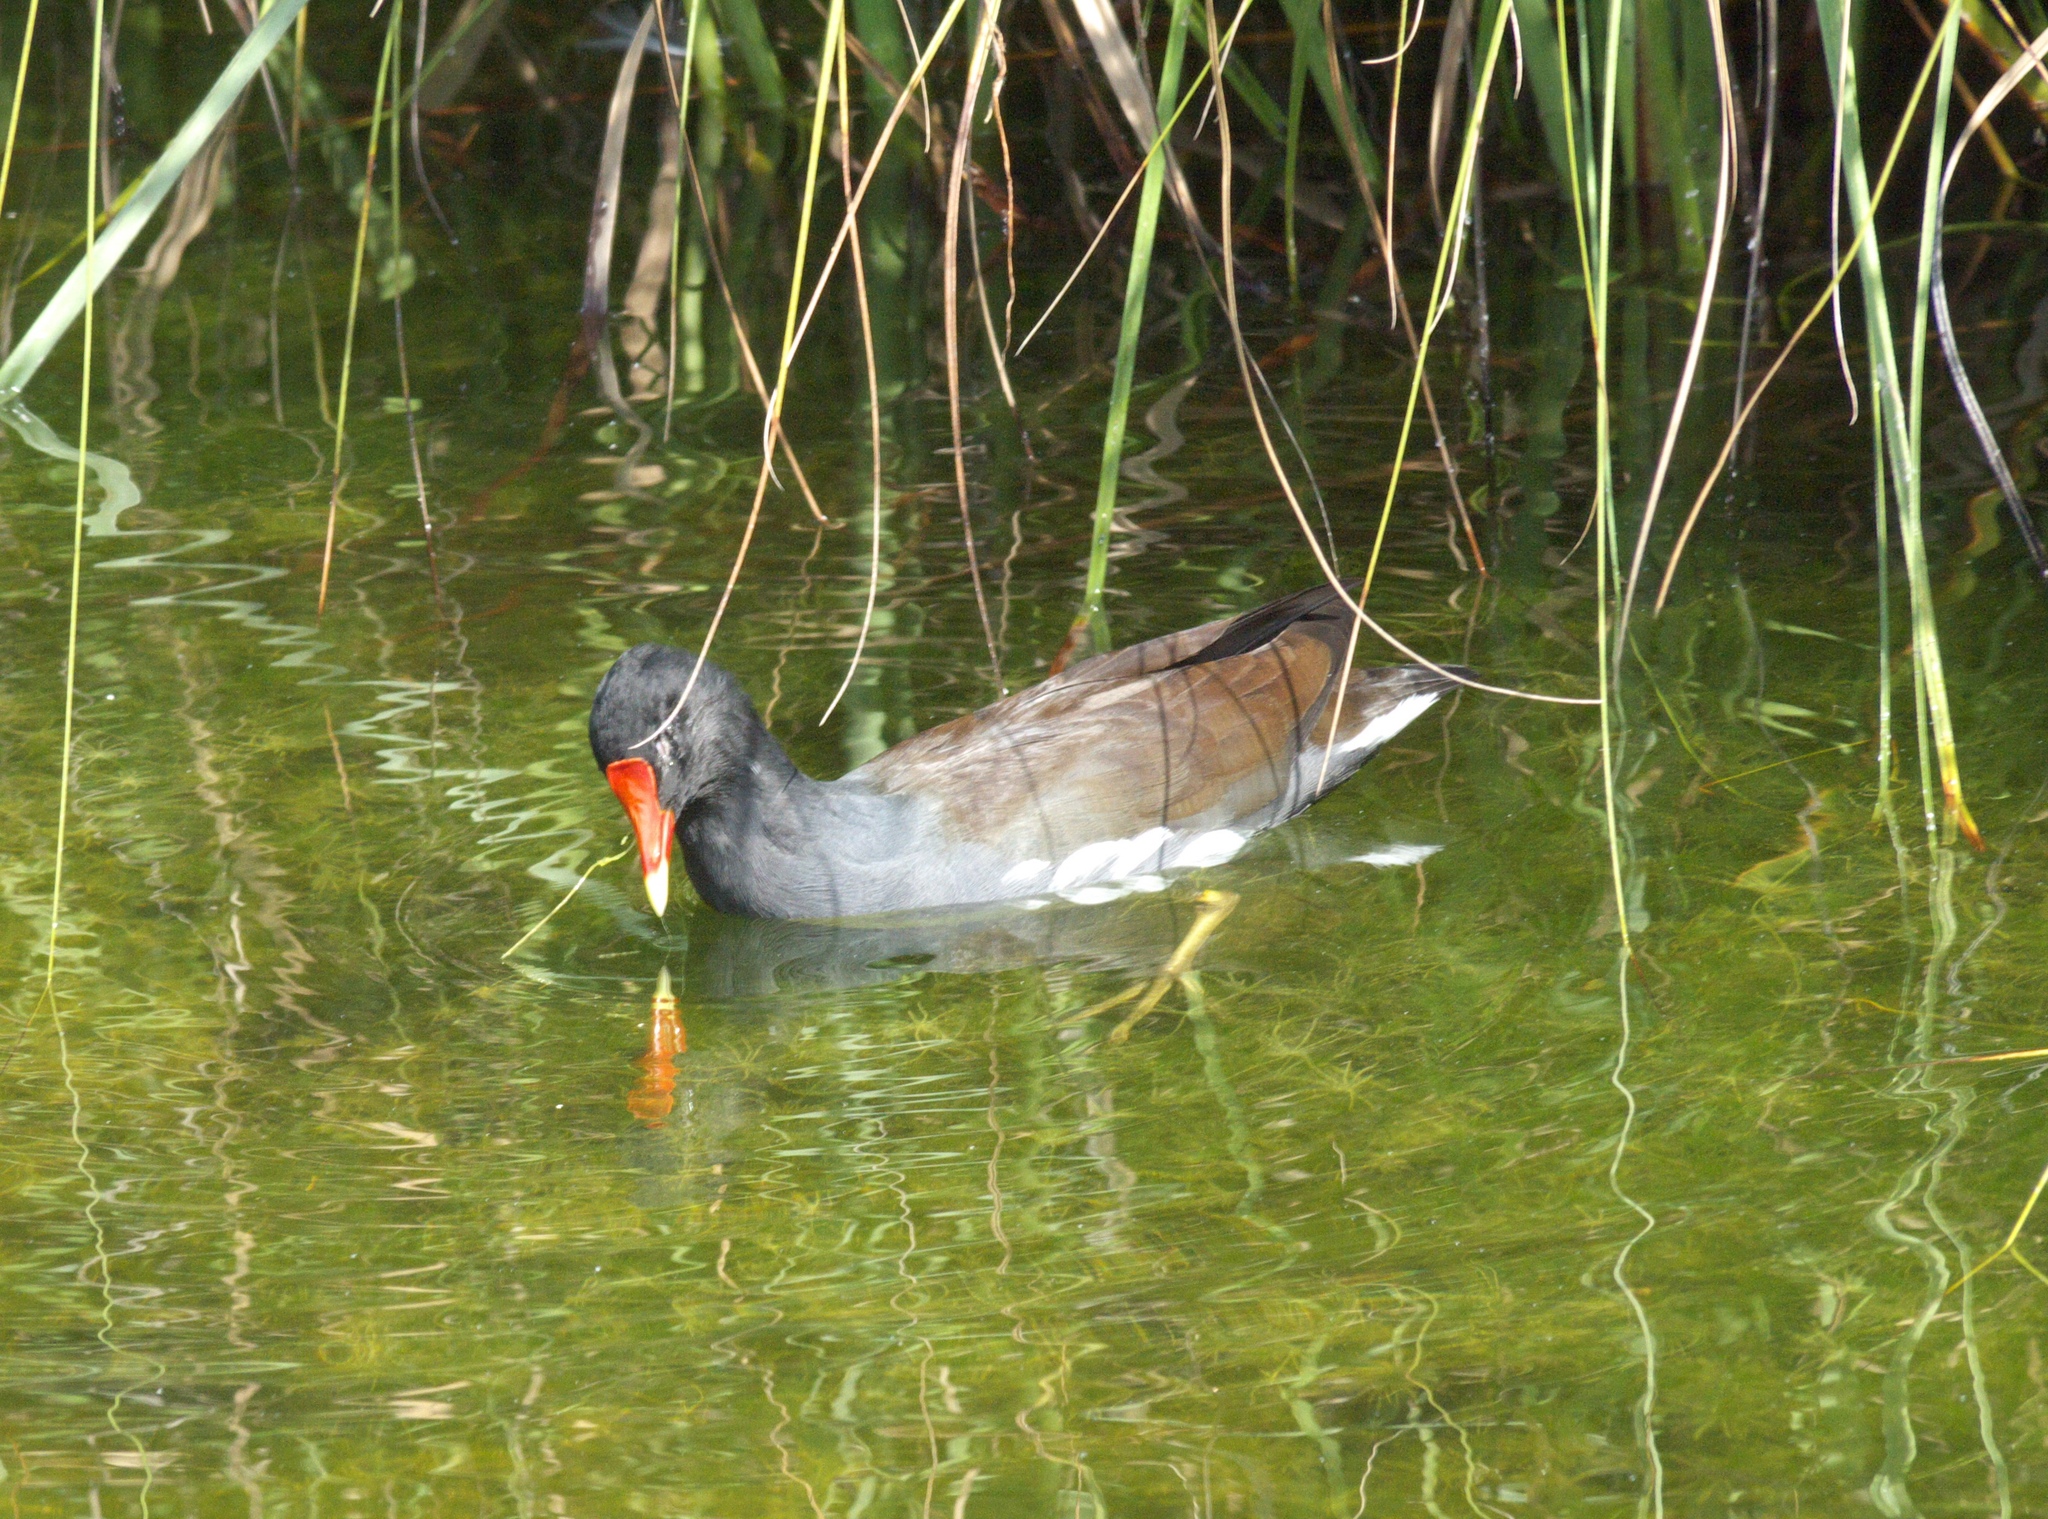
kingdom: Animalia
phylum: Chordata
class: Aves
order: Gruiformes
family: Rallidae
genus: Gallinula
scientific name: Gallinula chloropus
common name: Common moorhen
